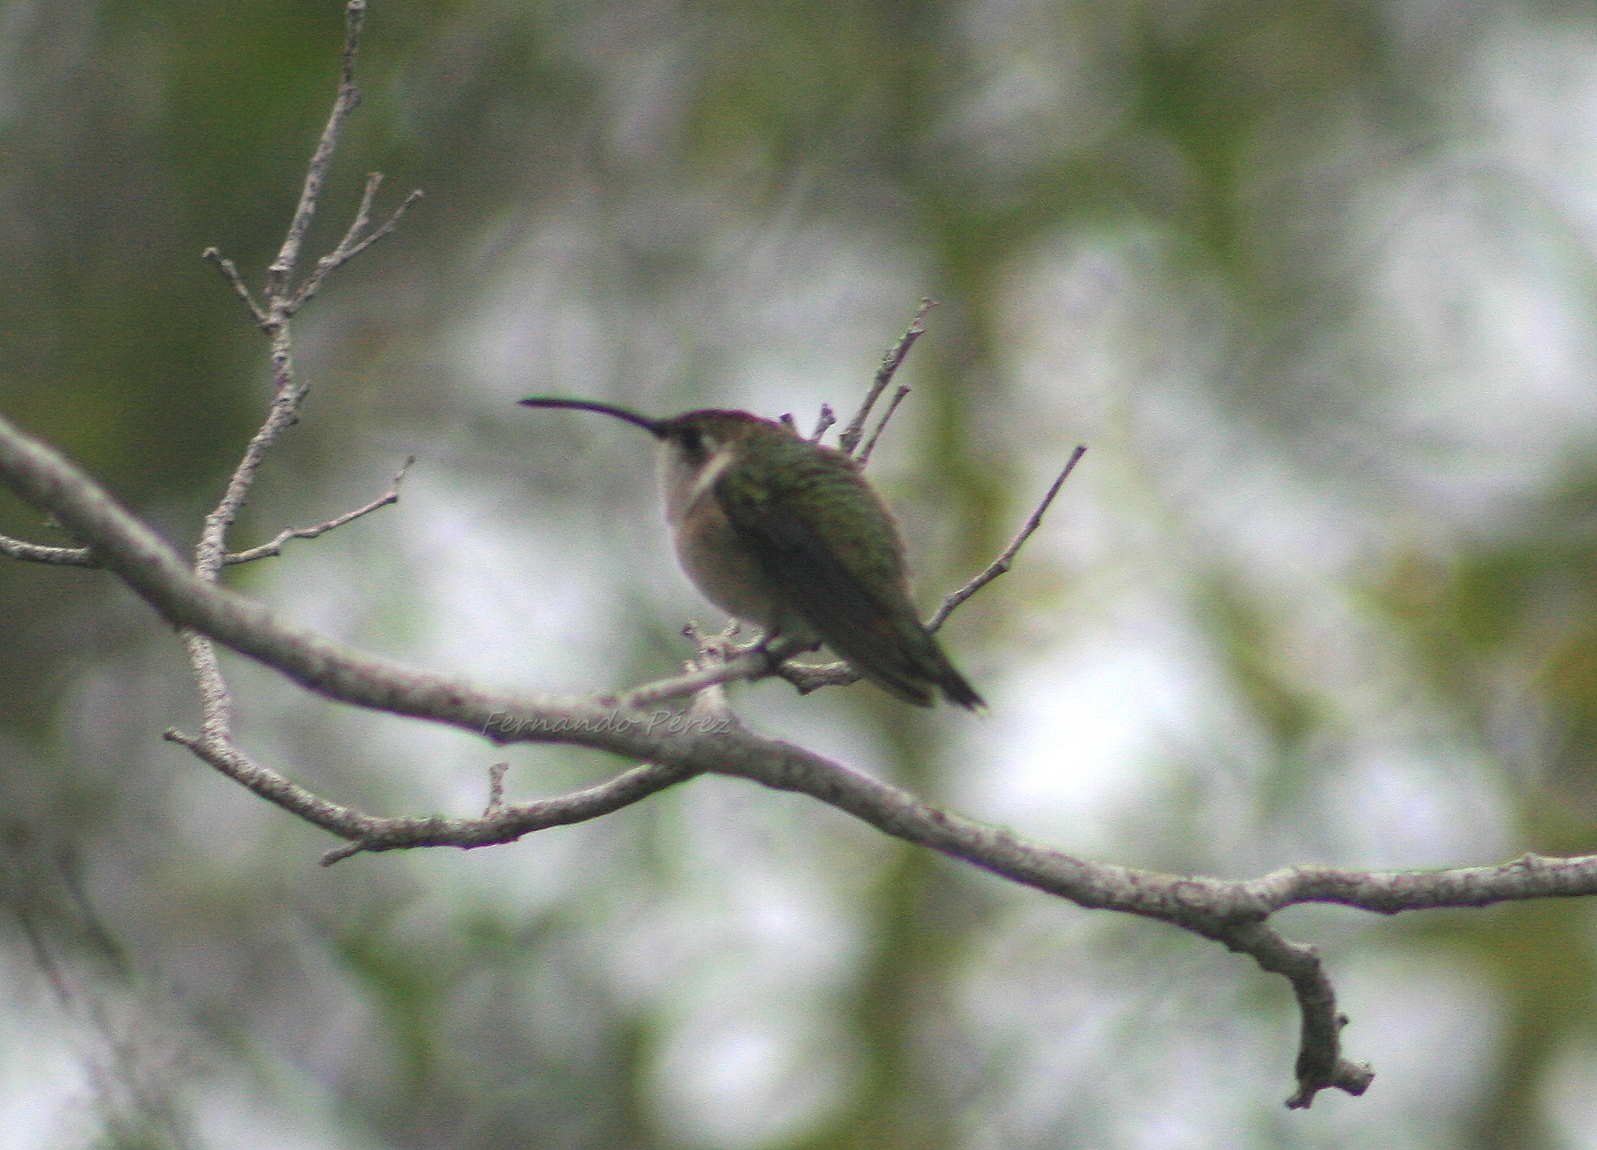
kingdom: Animalia
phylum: Chordata
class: Aves
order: Apodiformes
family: Trochilidae
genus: Doricha
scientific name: Doricha eliza
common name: Mexican sheartail
